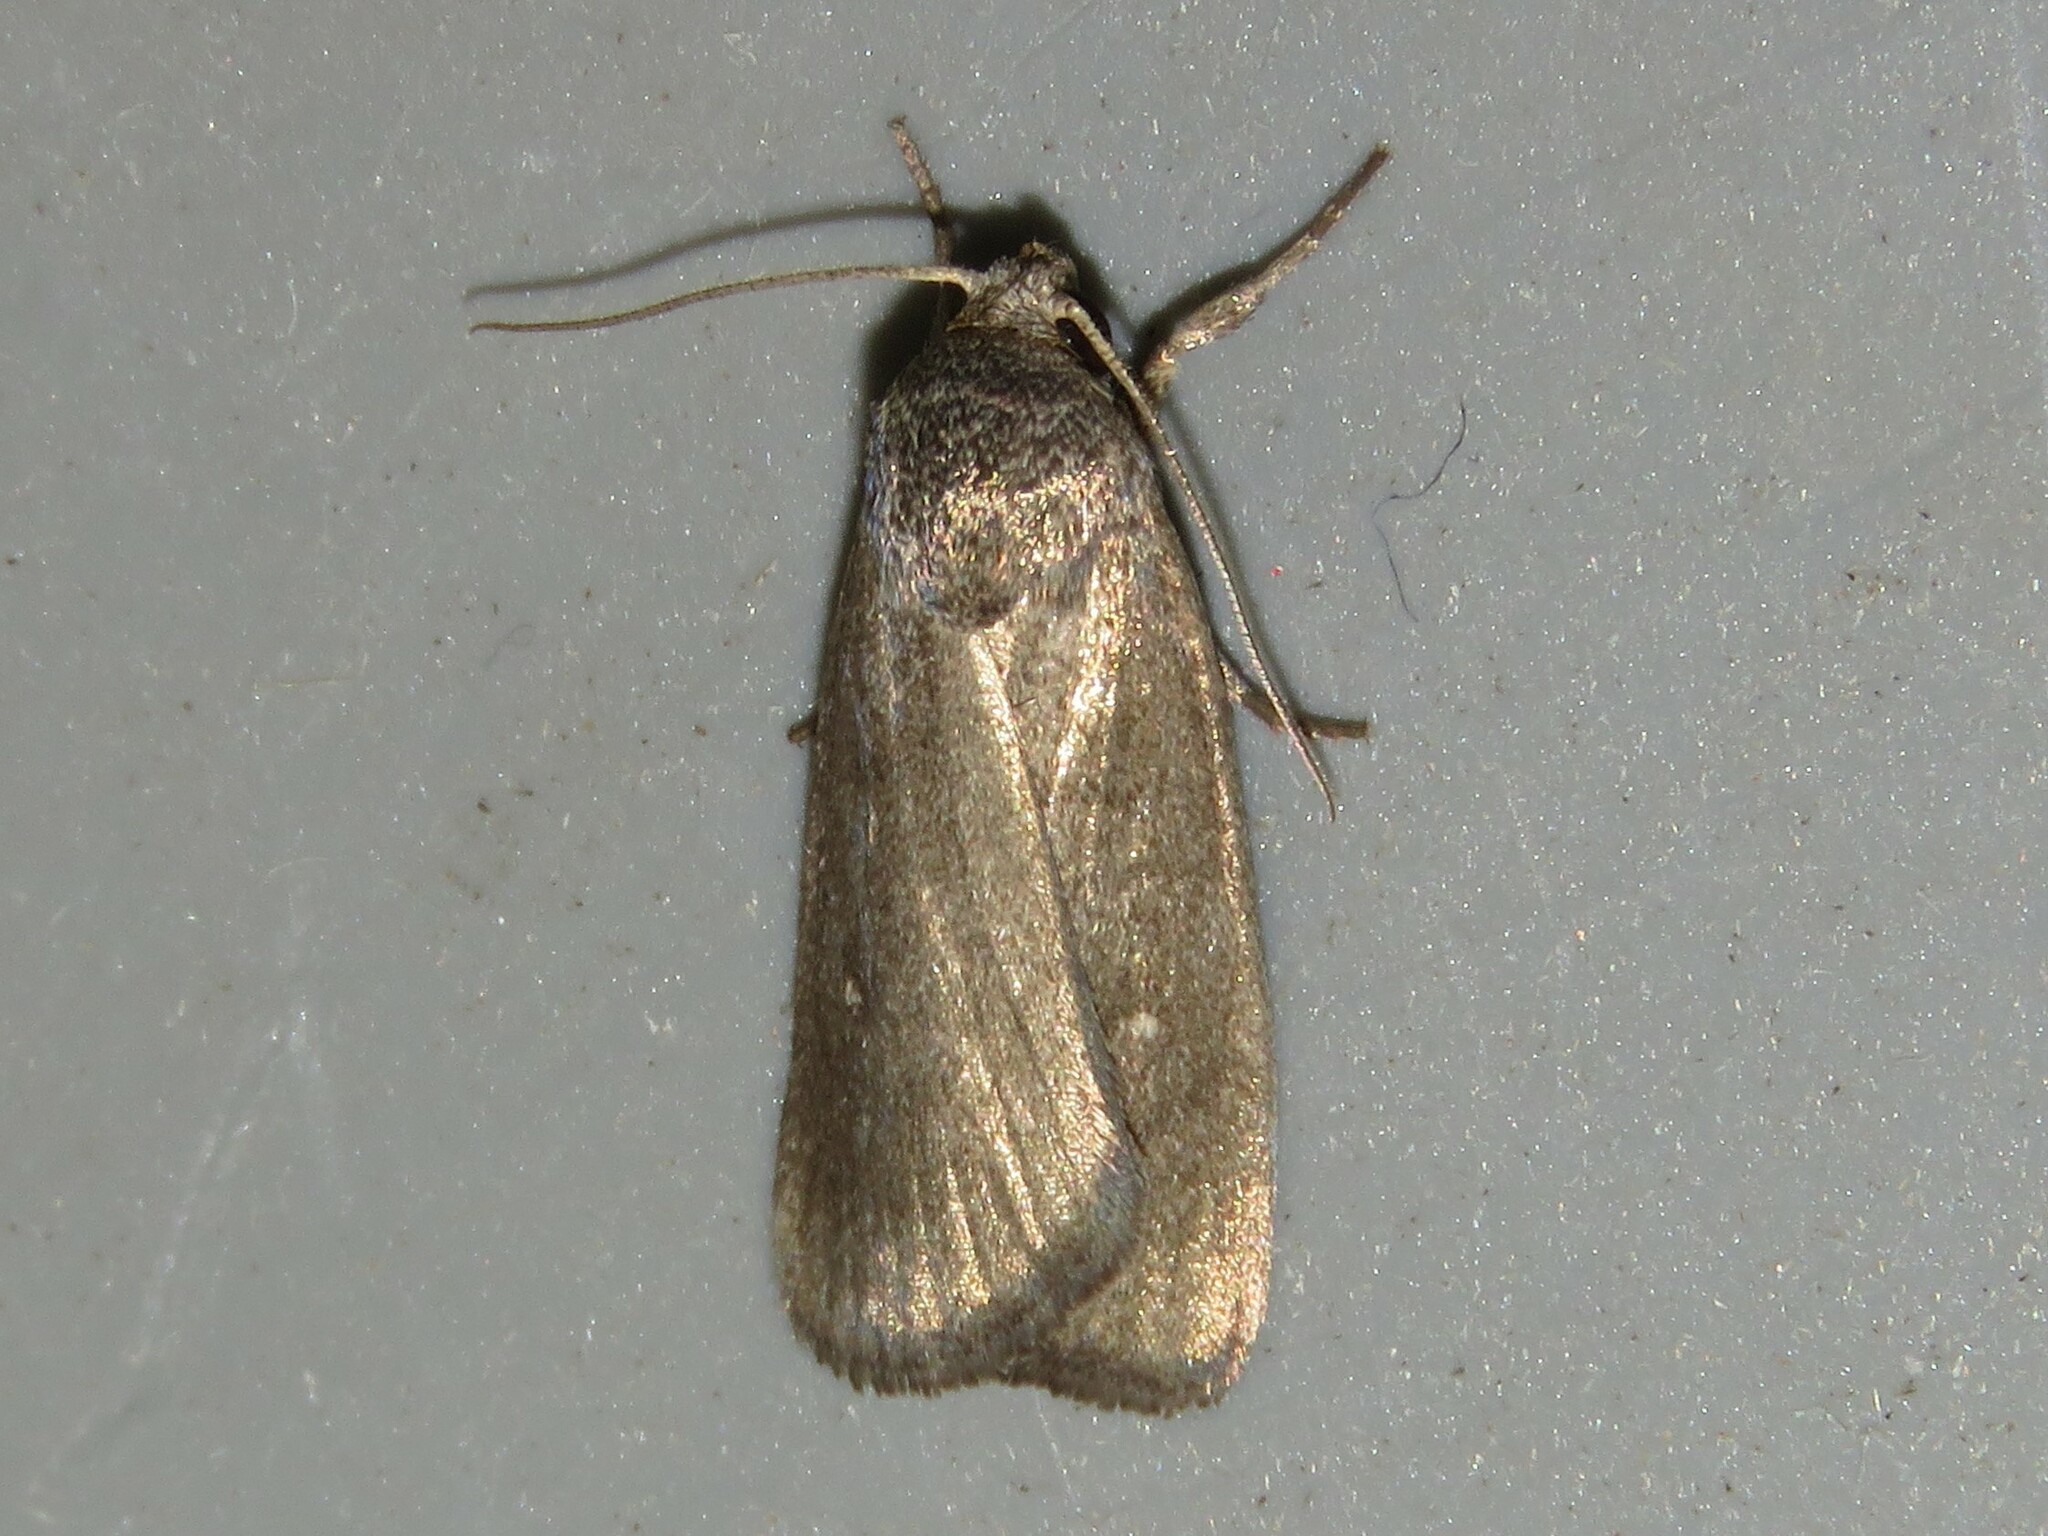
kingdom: Animalia
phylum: Arthropoda
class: Insecta
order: Lepidoptera
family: Noctuidae
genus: Proxenus
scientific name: Proxenus miranda
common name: Miranda moth
